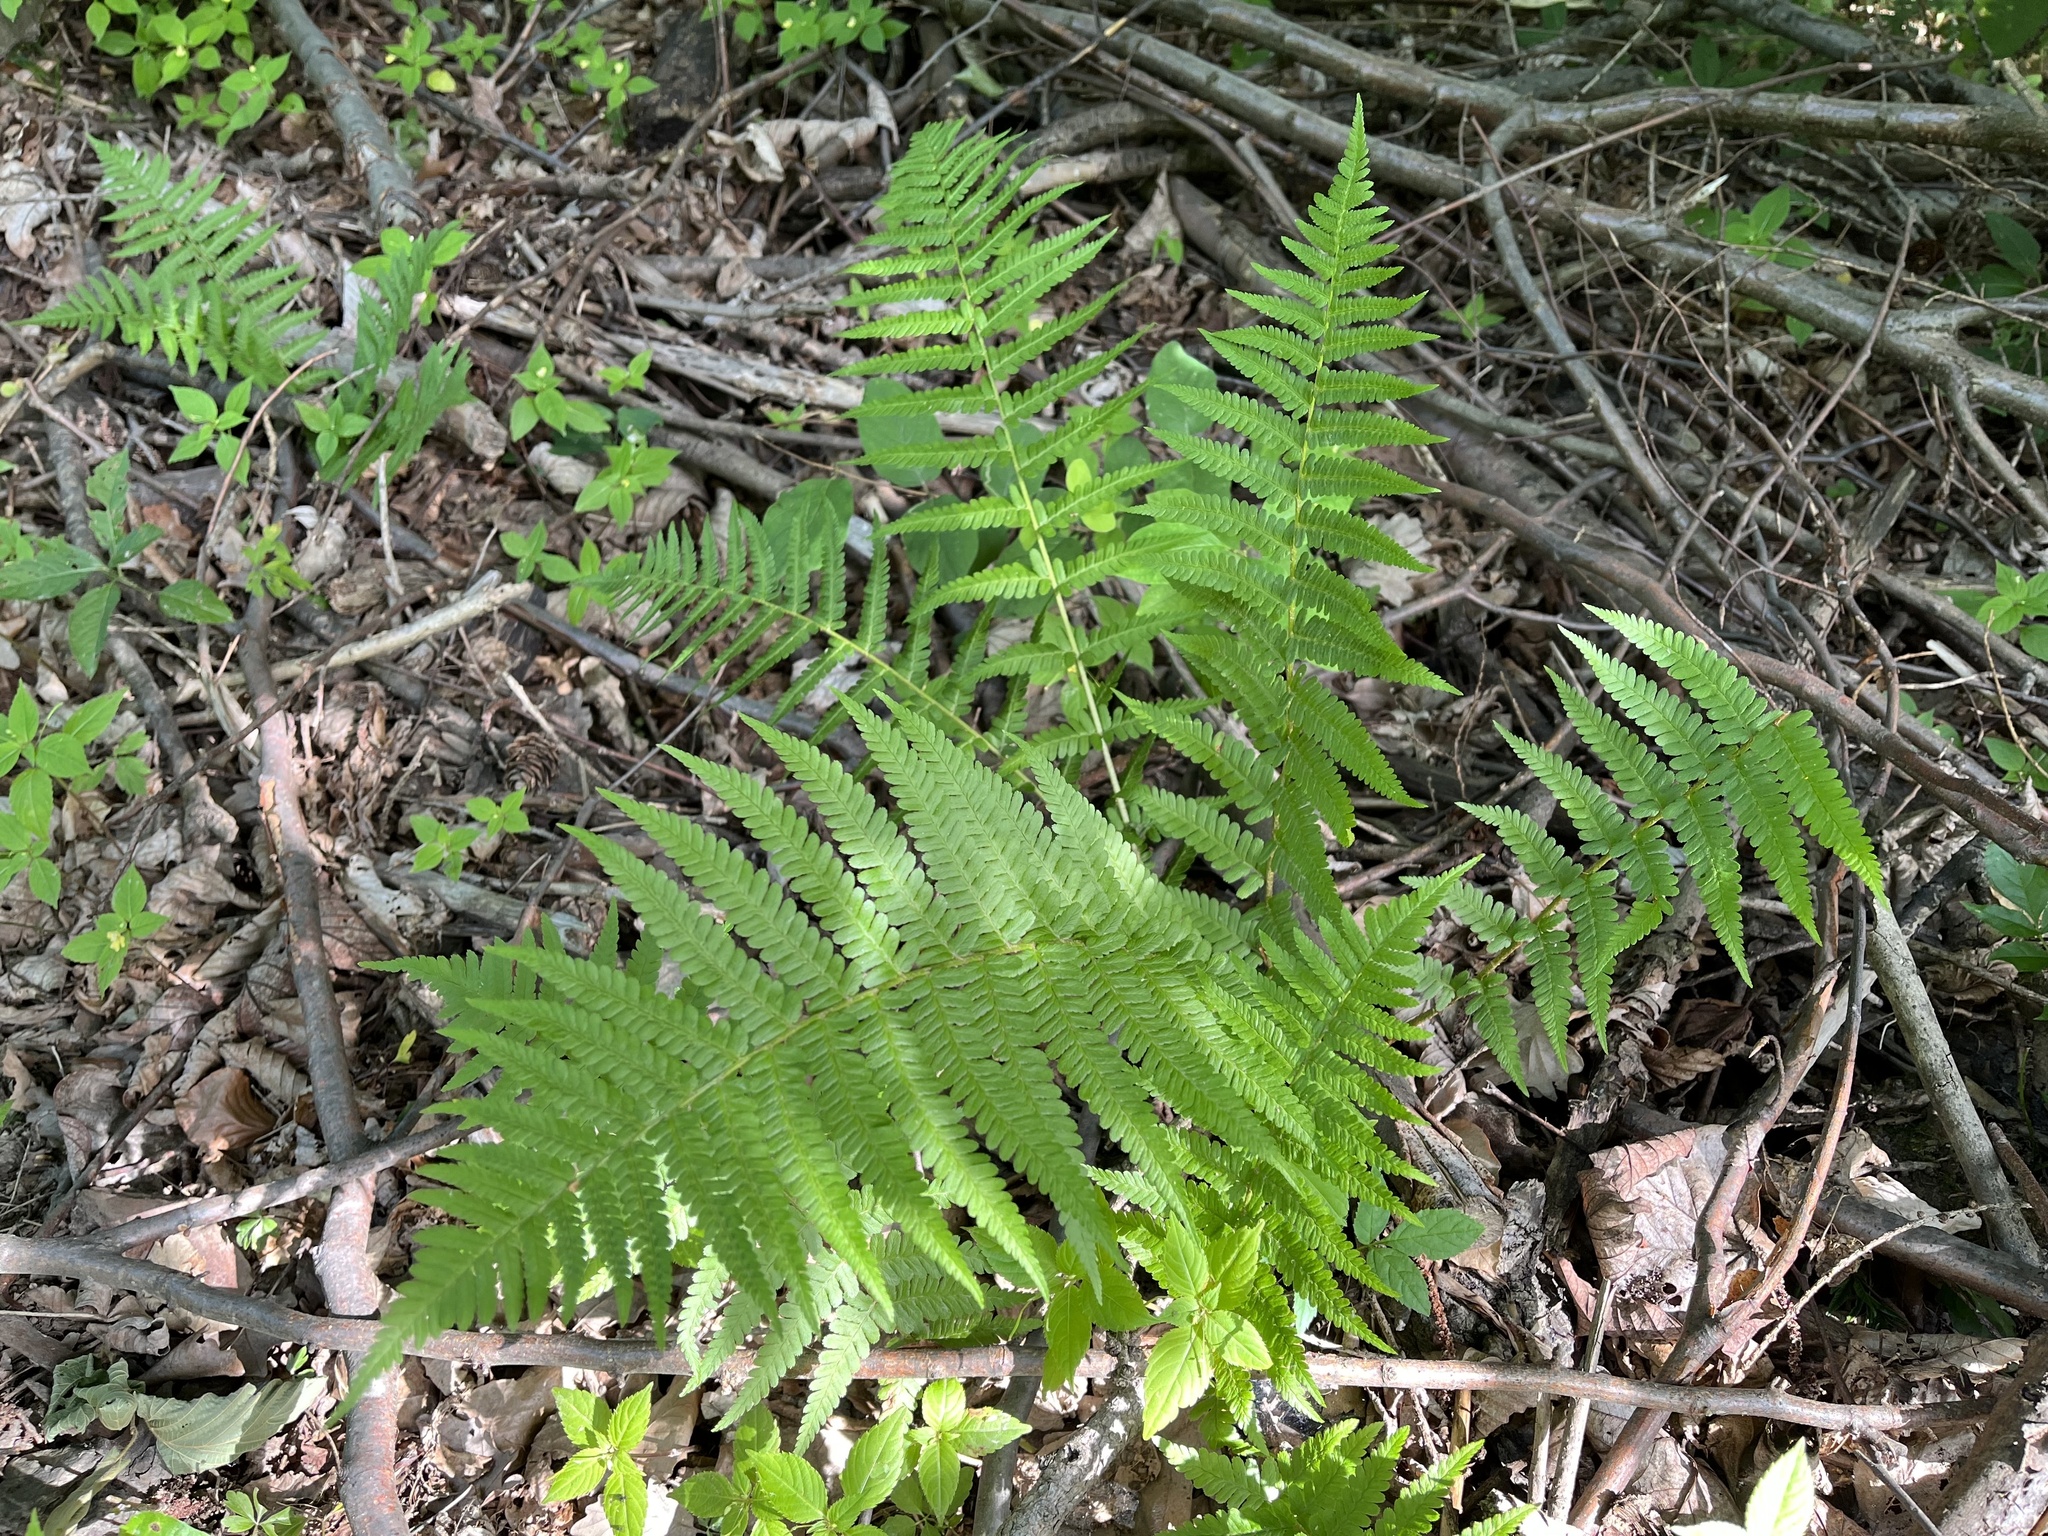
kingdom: Plantae
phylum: Tracheophyta
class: Polypodiopsida
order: Polypodiales
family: Dryopteridaceae
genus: Dryopteris
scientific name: Dryopteris filix-mas
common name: Male fern
